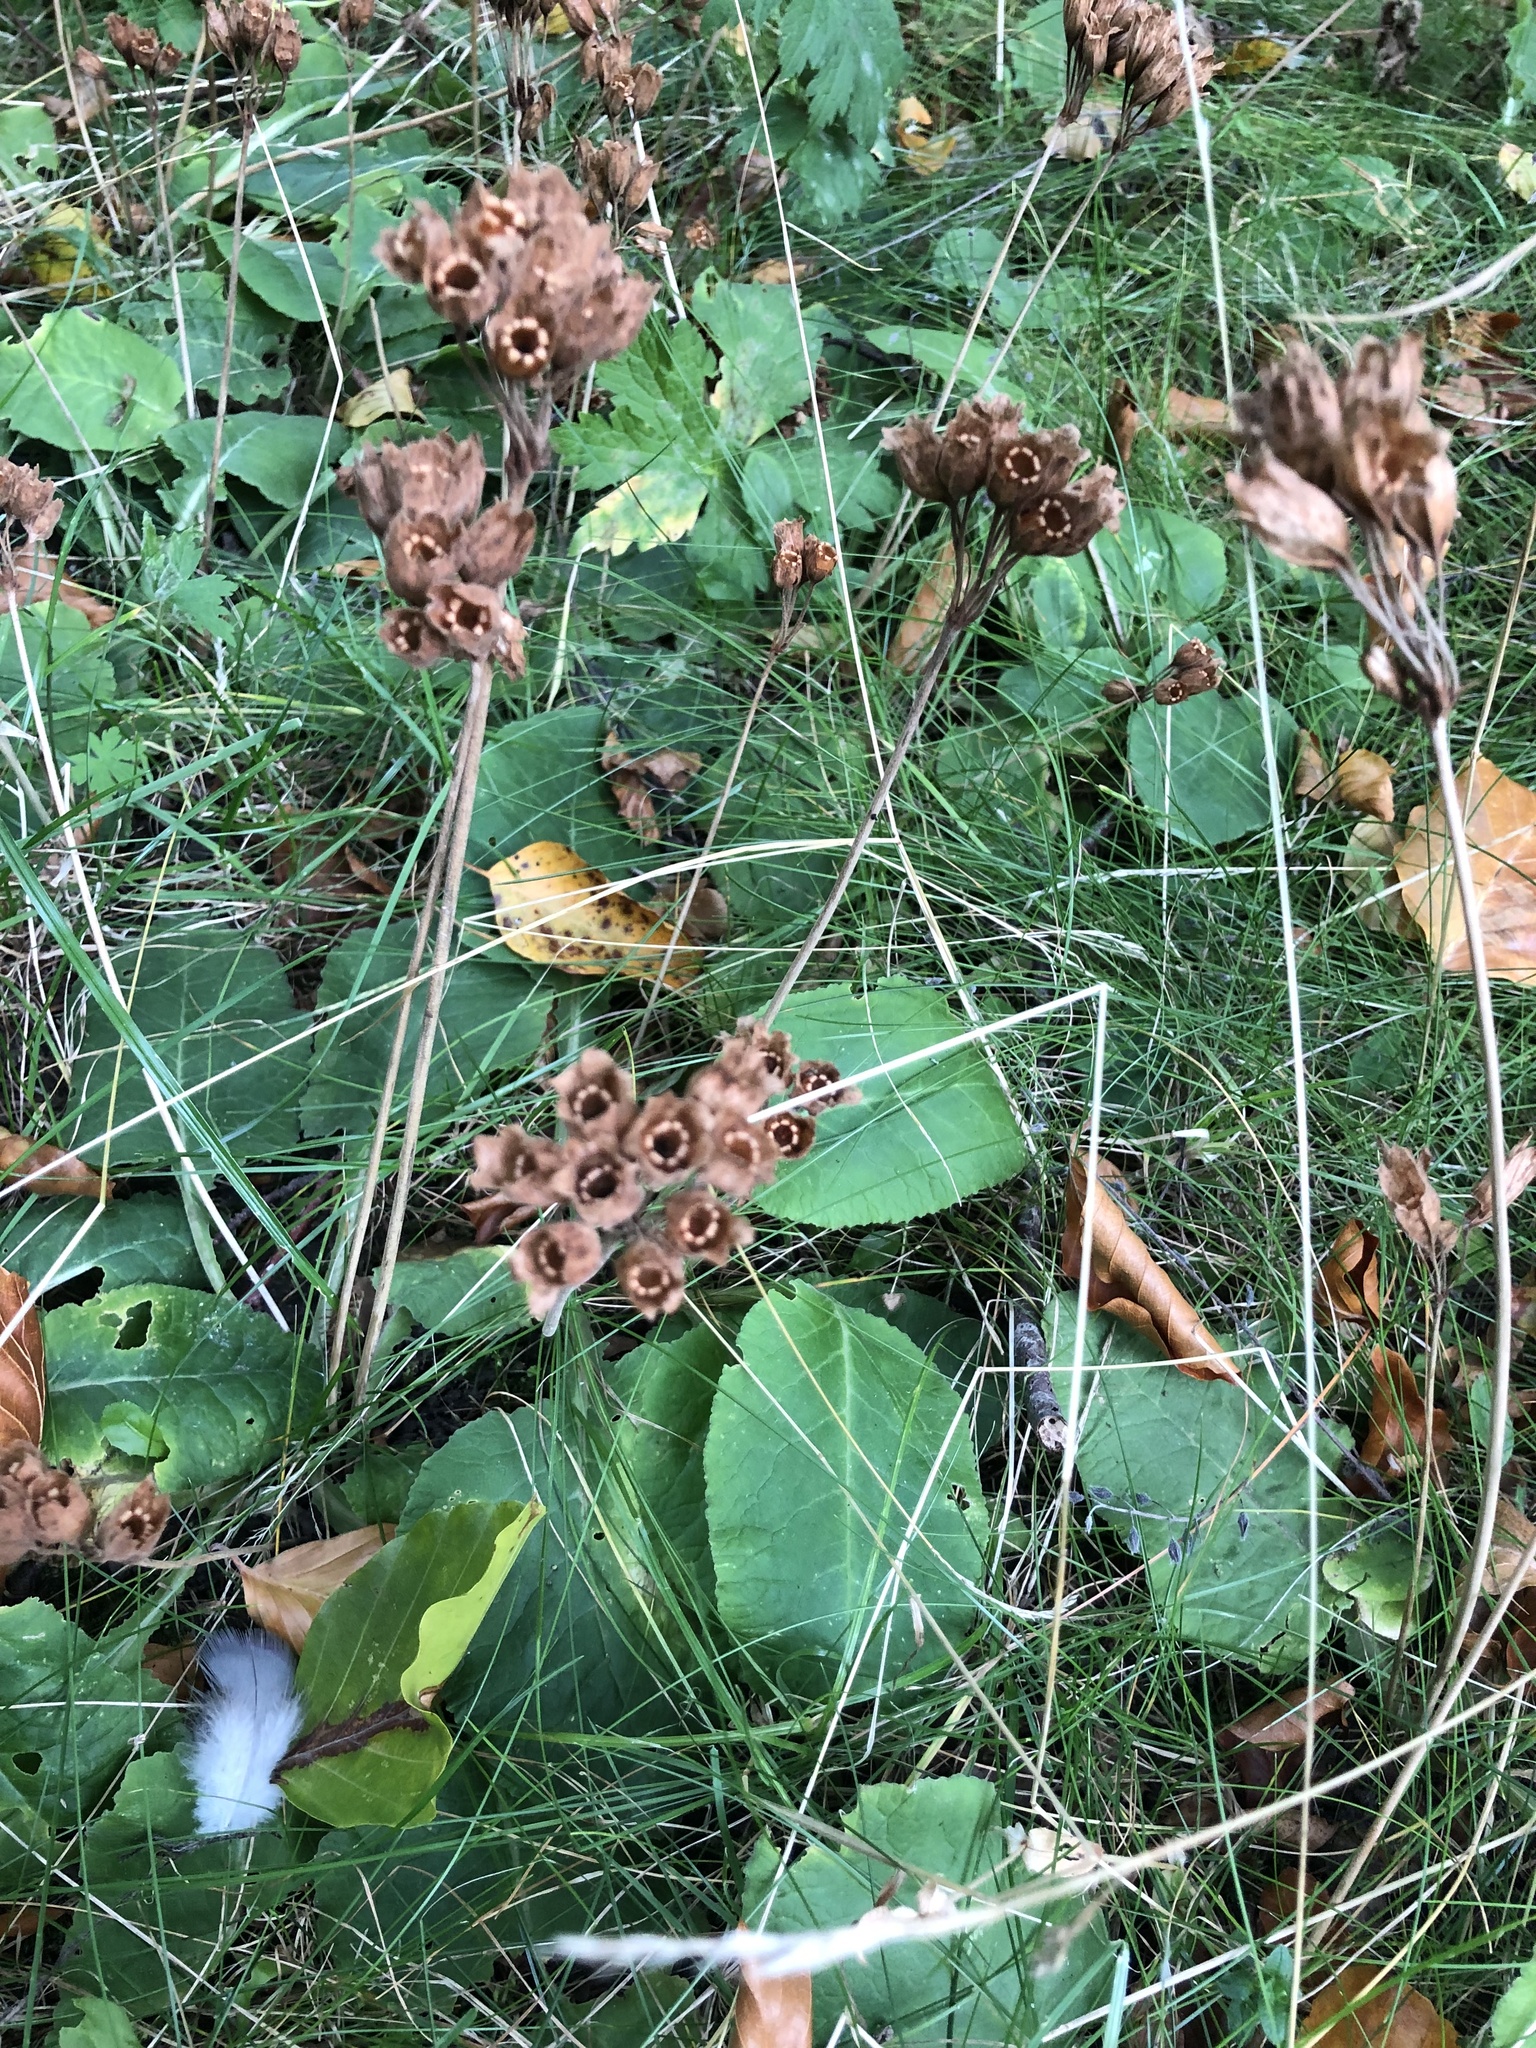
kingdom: Plantae
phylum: Tracheophyta
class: Magnoliopsida
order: Ericales
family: Primulaceae
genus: Primula
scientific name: Primula veris
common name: Cowslip
